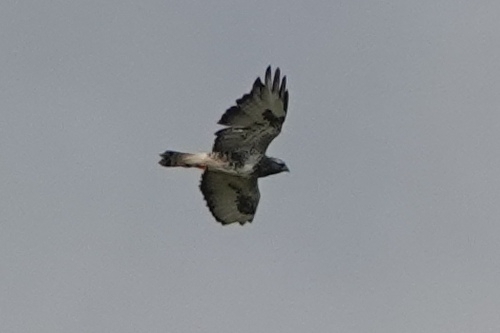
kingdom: Animalia
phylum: Chordata
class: Aves
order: Accipitriformes
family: Accipitridae
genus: Buteo
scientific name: Buteo lagopus
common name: Rough-legged buzzard
